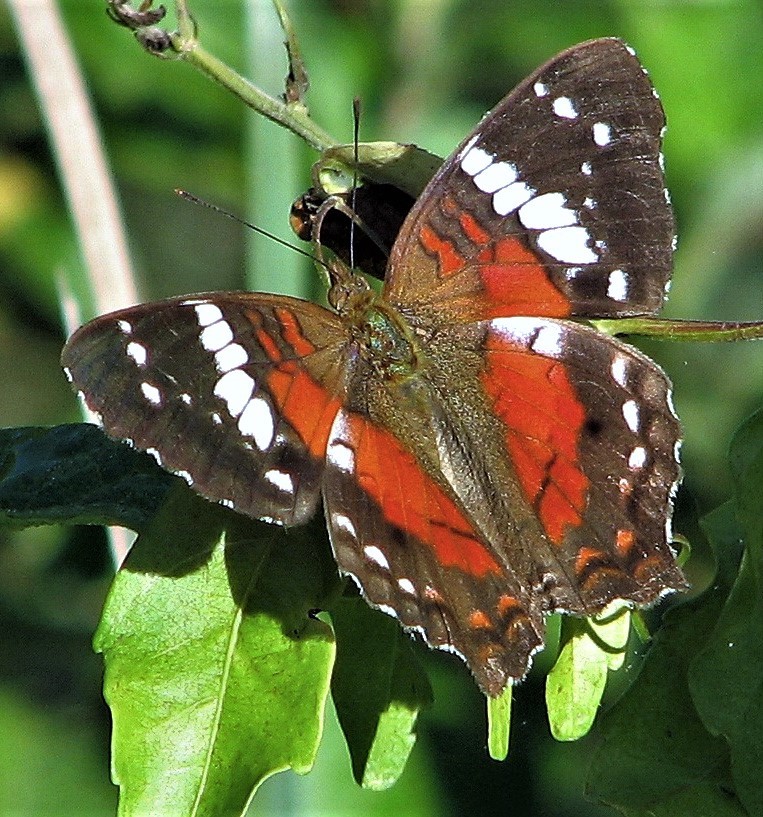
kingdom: Animalia
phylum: Arthropoda
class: Insecta
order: Lepidoptera
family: Nymphalidae
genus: Anartia
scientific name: Anartia amathea
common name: Red peacock
